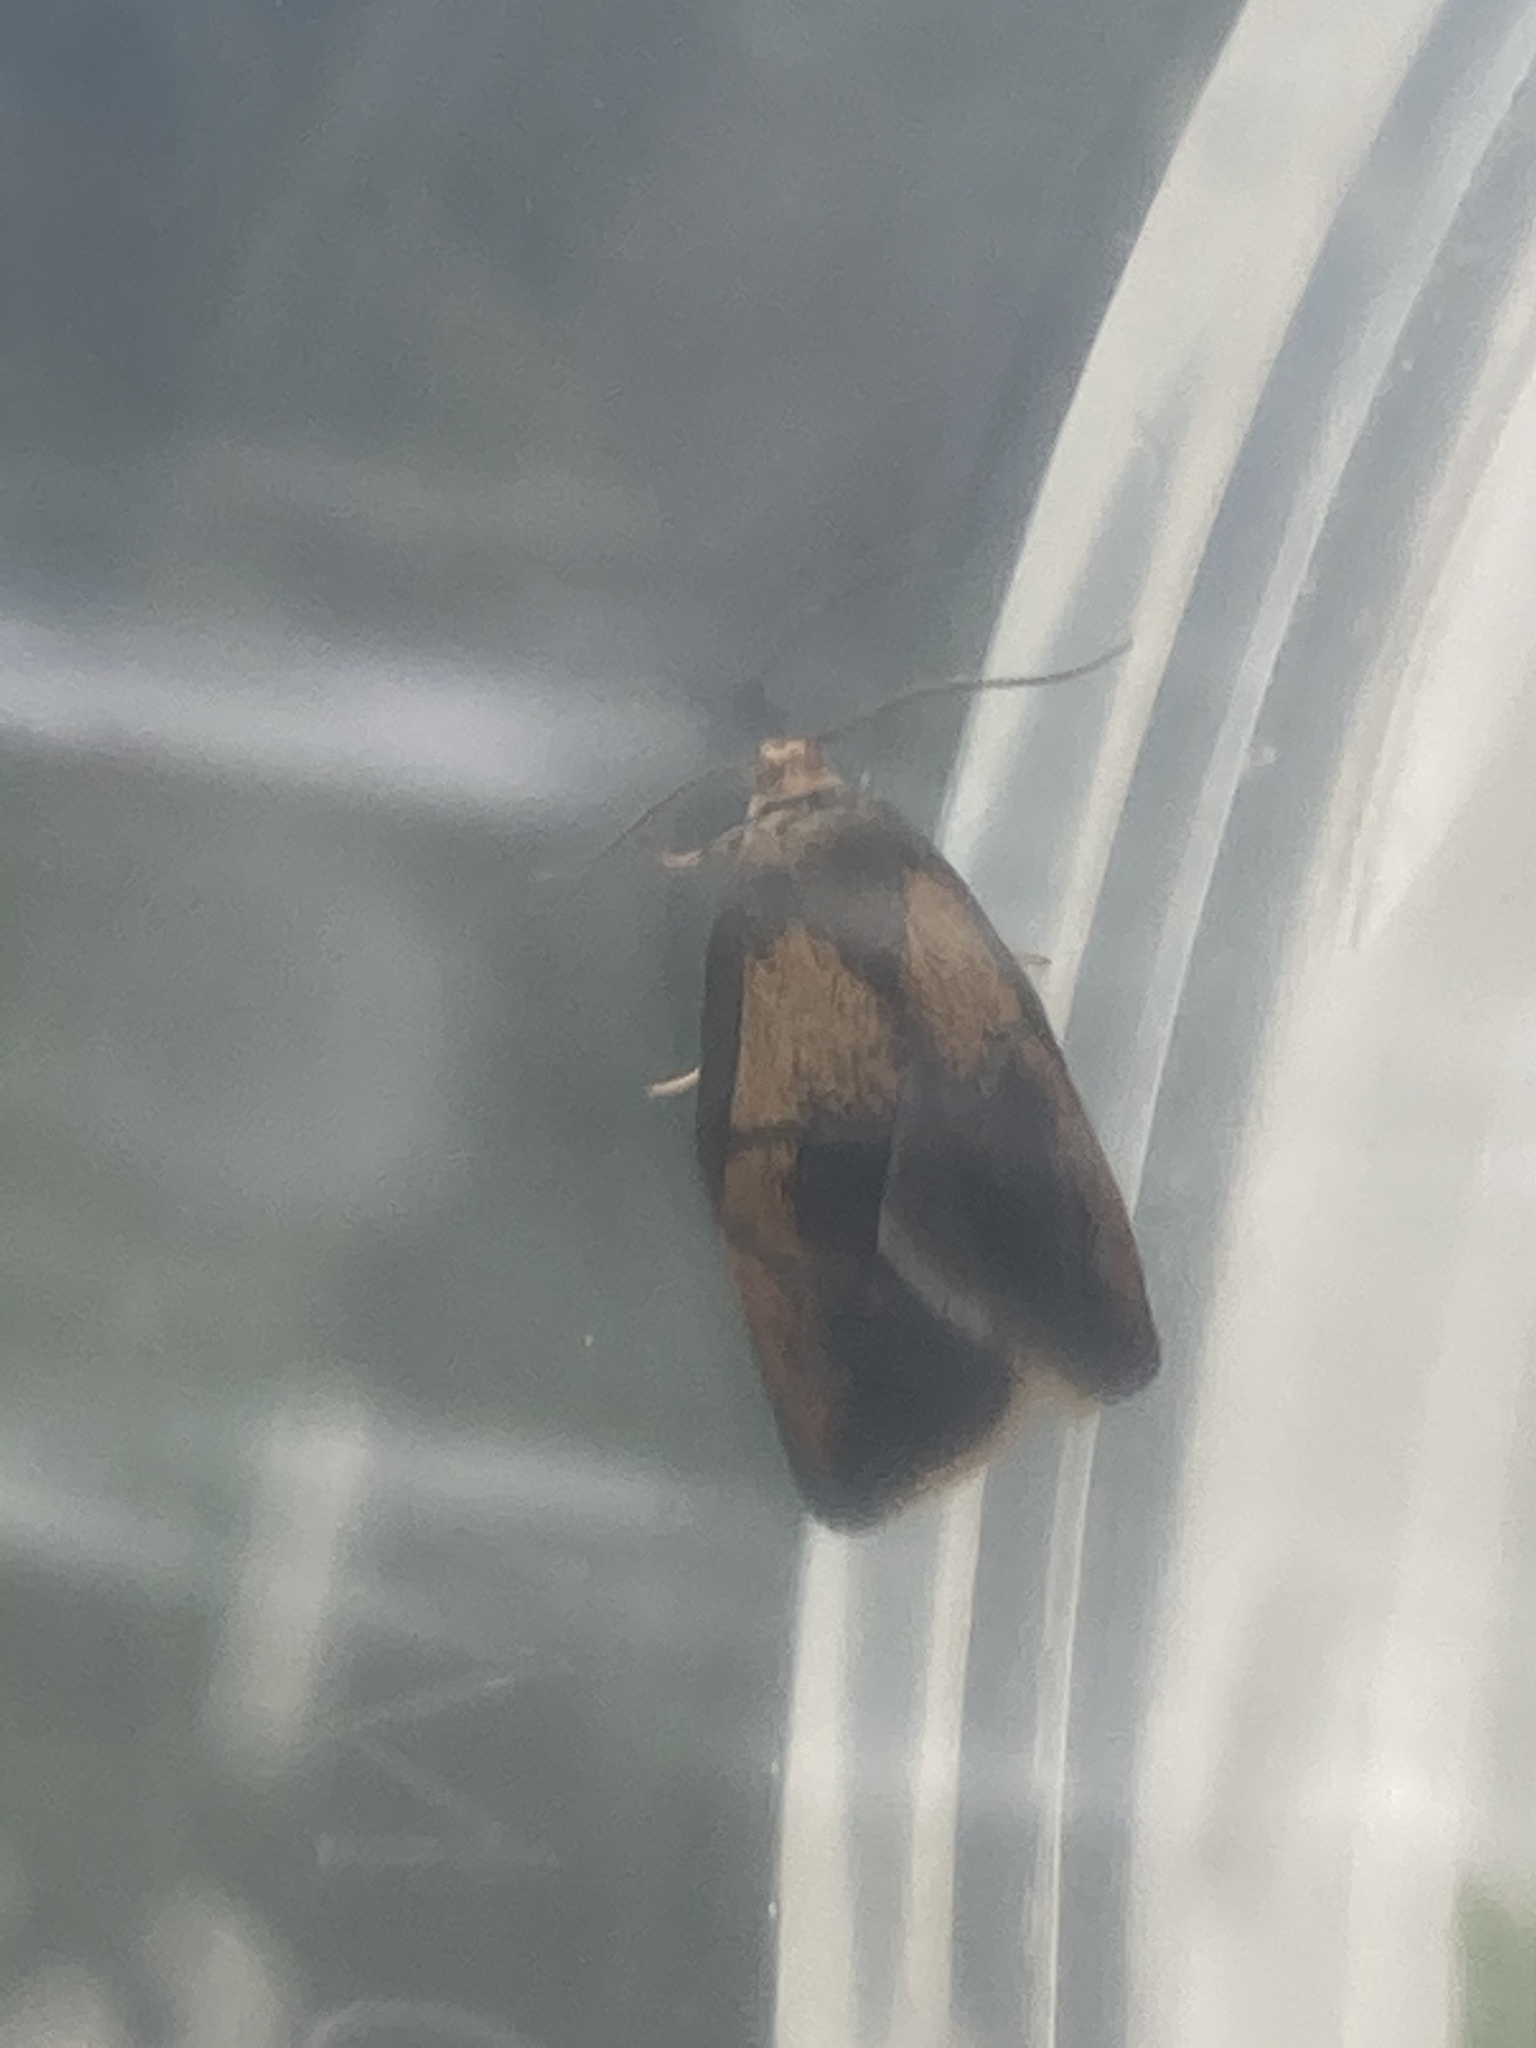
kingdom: Animalia
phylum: Arthropoda
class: Insecta
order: Lepidoptera
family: Tortricidae
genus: Ptycholoma
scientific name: Ptycholoma lecheana
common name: Leches twist moth
